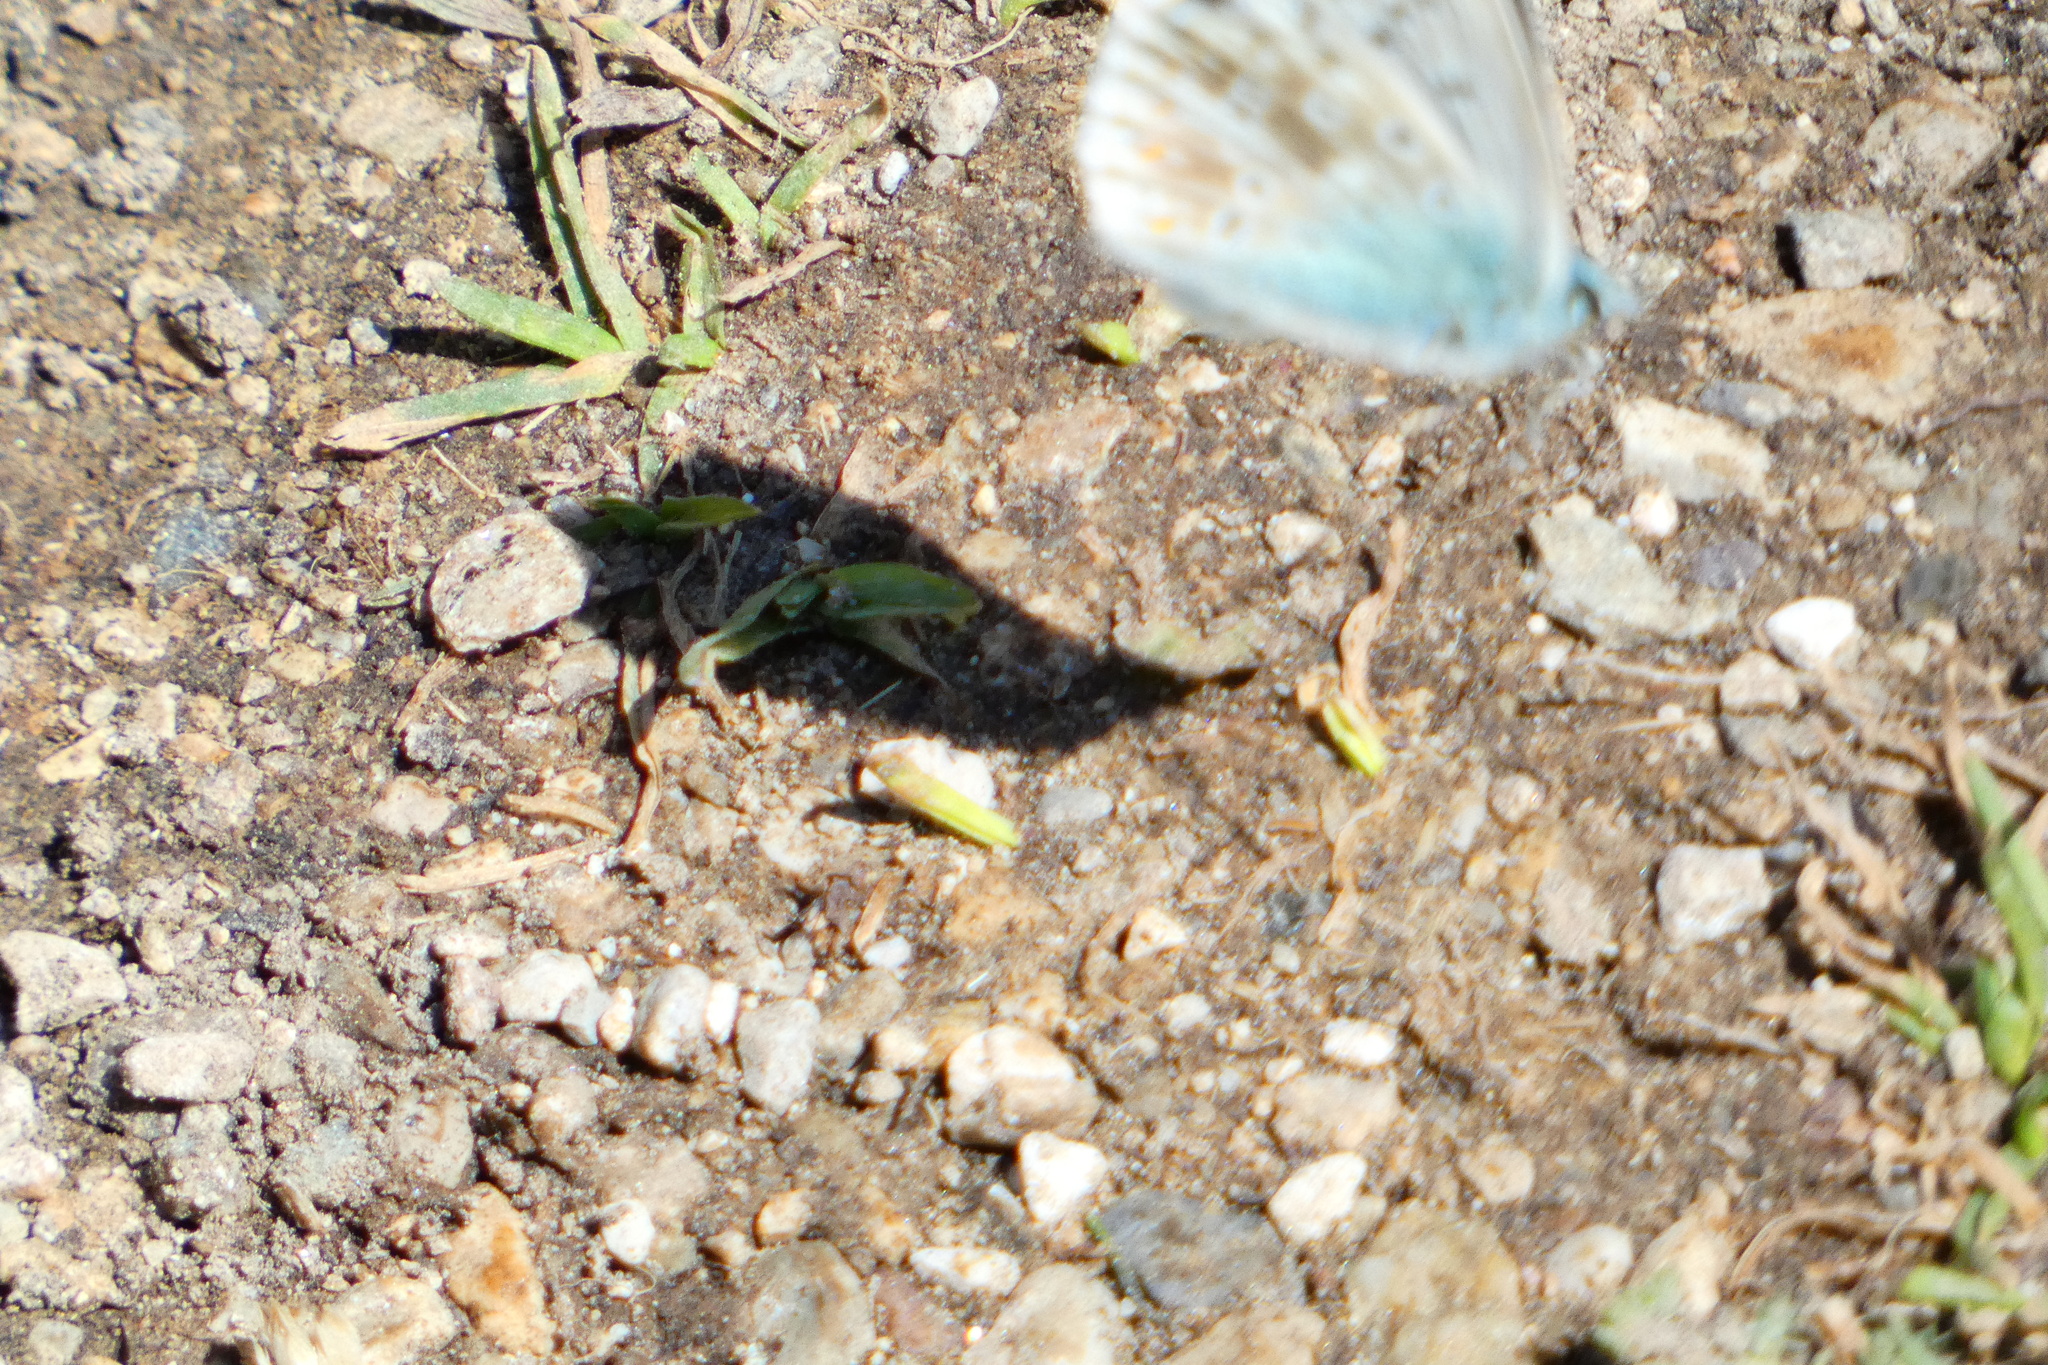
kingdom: Animalia
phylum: Arthropoda
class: Insecta
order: Lepidoptera
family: Lycaenidae
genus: Lysandra
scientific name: Lysandra coridon
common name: Chalkhill blue
